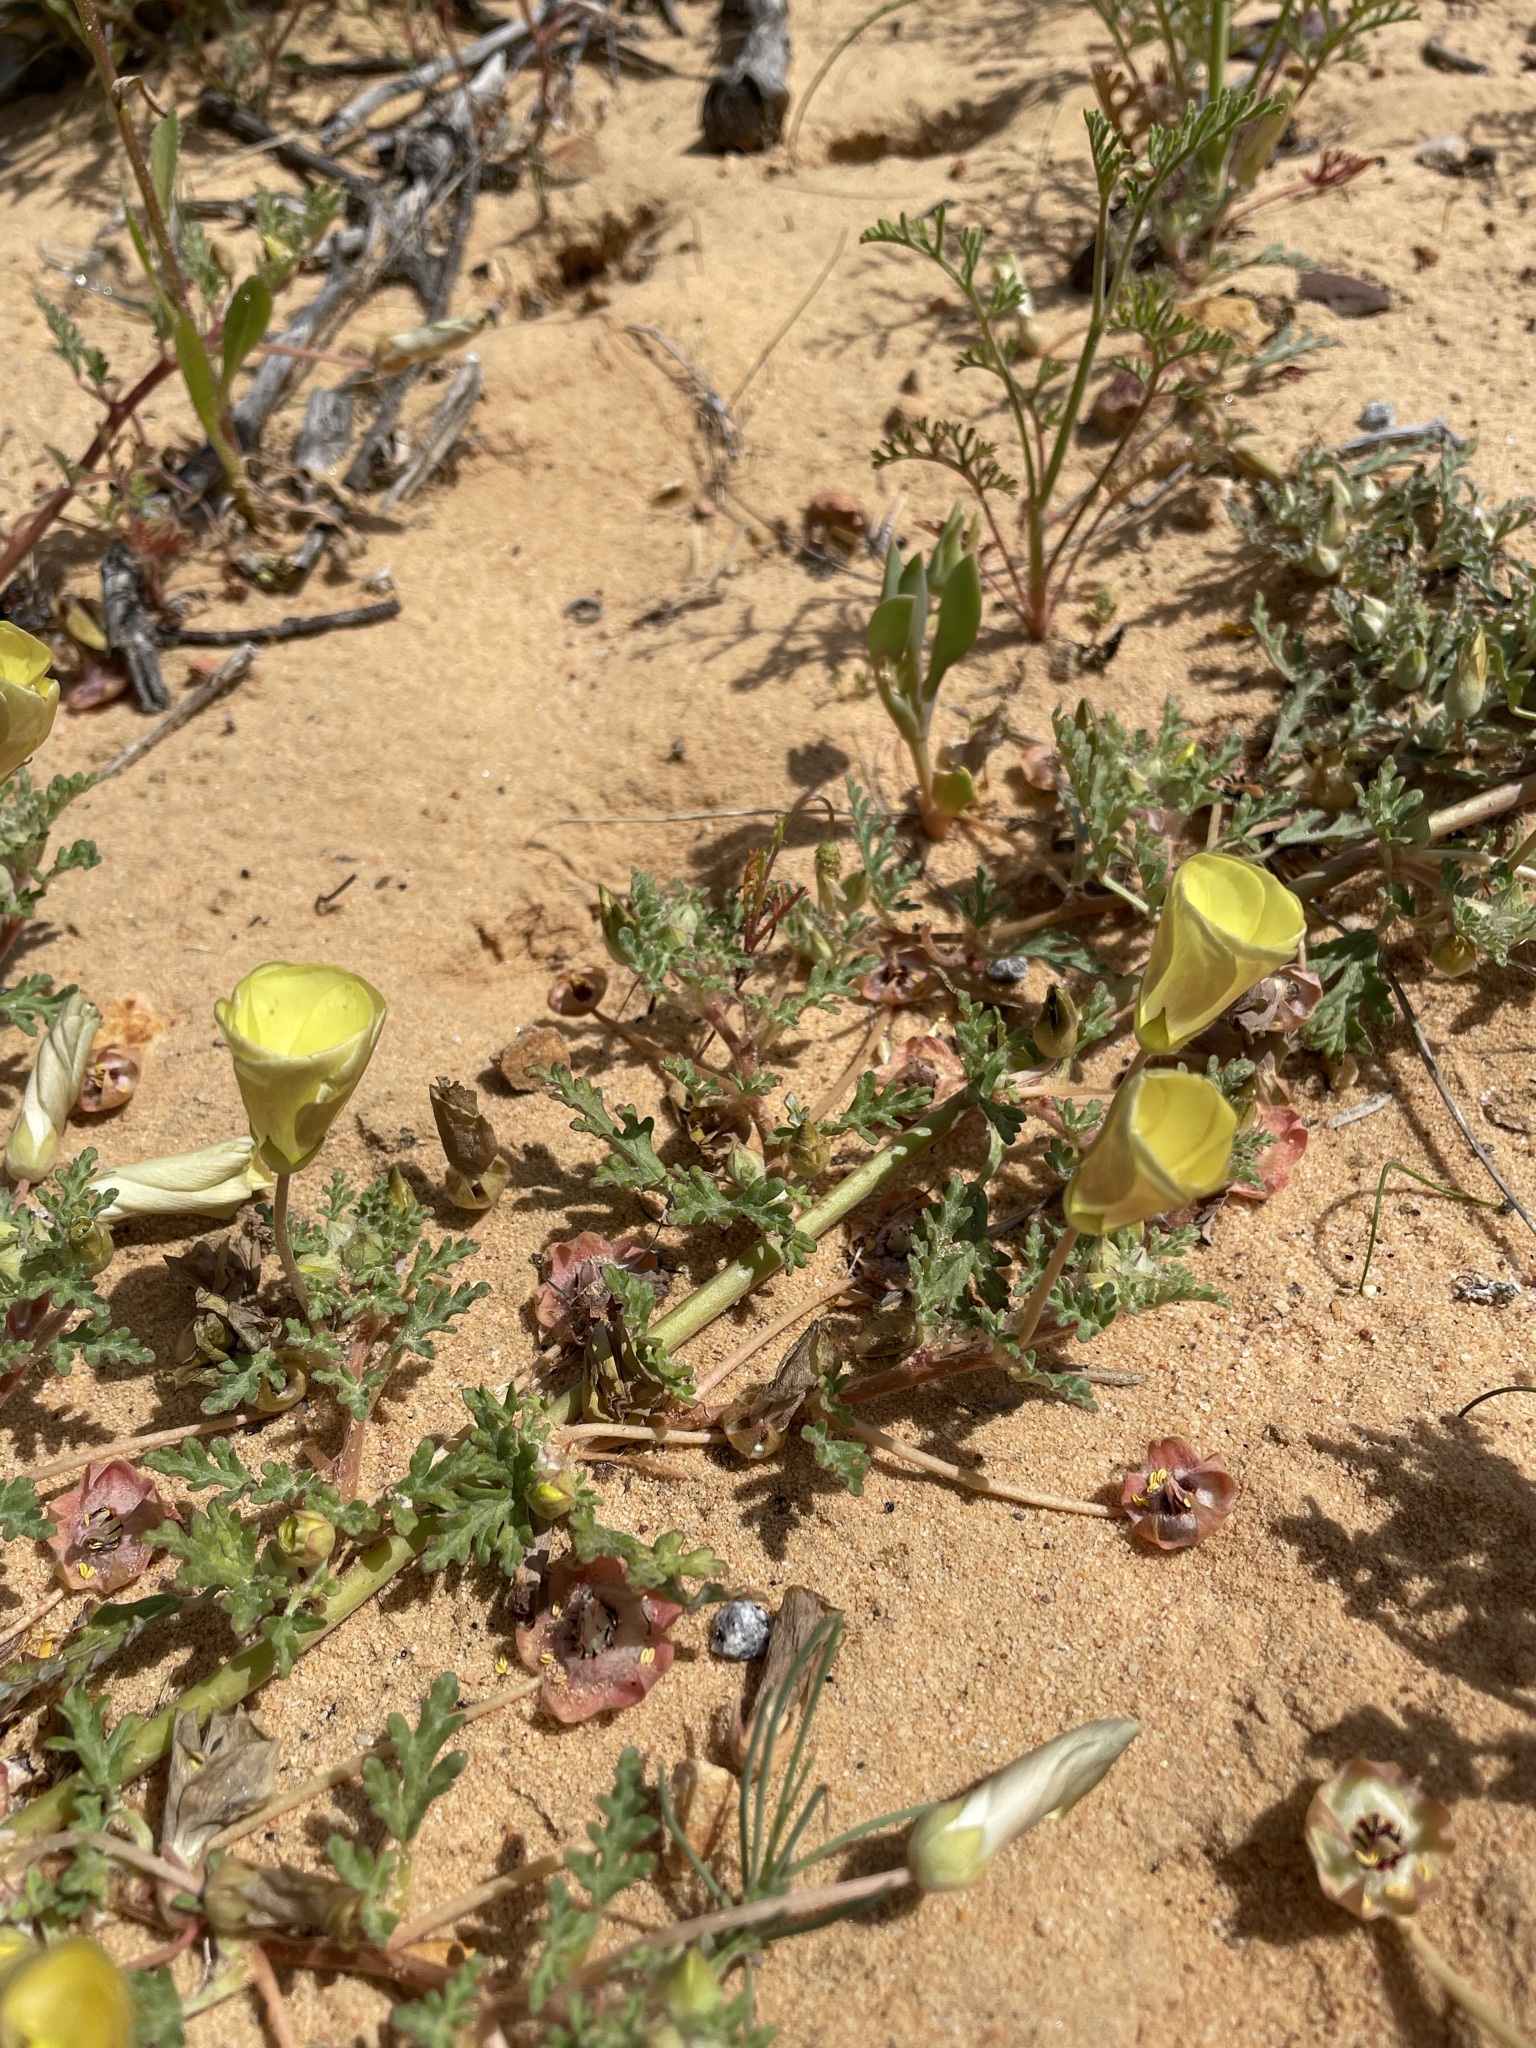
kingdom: Plantae
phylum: Tracheophyta
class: Magnoliopsida
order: Malvales
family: Neuradaceae
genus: Grielum
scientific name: Grielum humifusum
